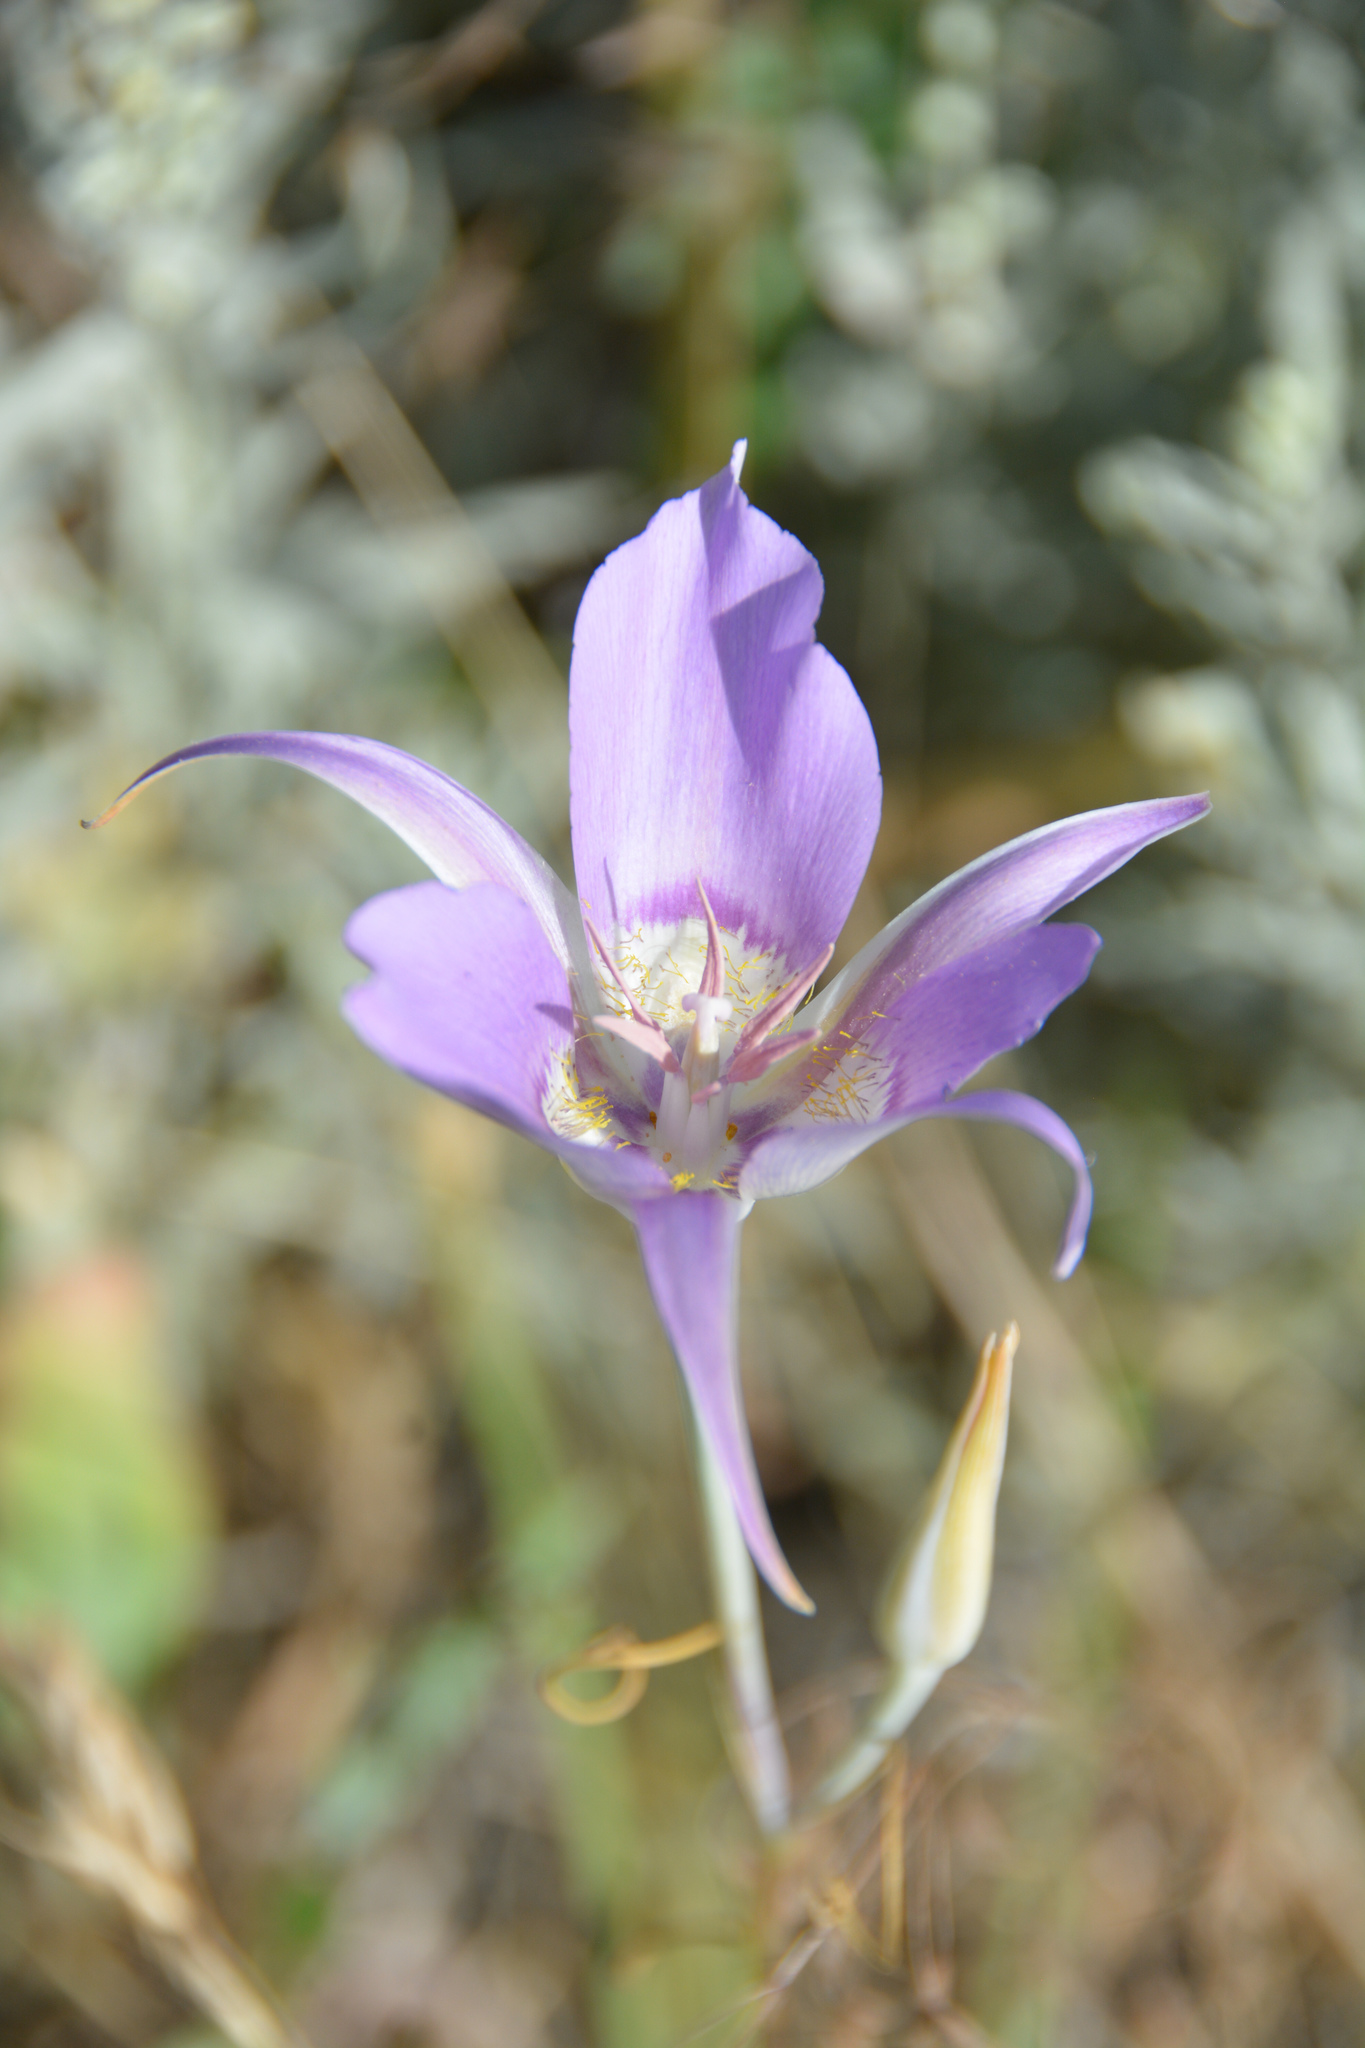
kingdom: Plantae
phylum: Tracheophyta
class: Liliopsida
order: Liliales
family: Liliaceae
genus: Calochortus
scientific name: Calochortus macrocarpus
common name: Green-band mariposa lily
